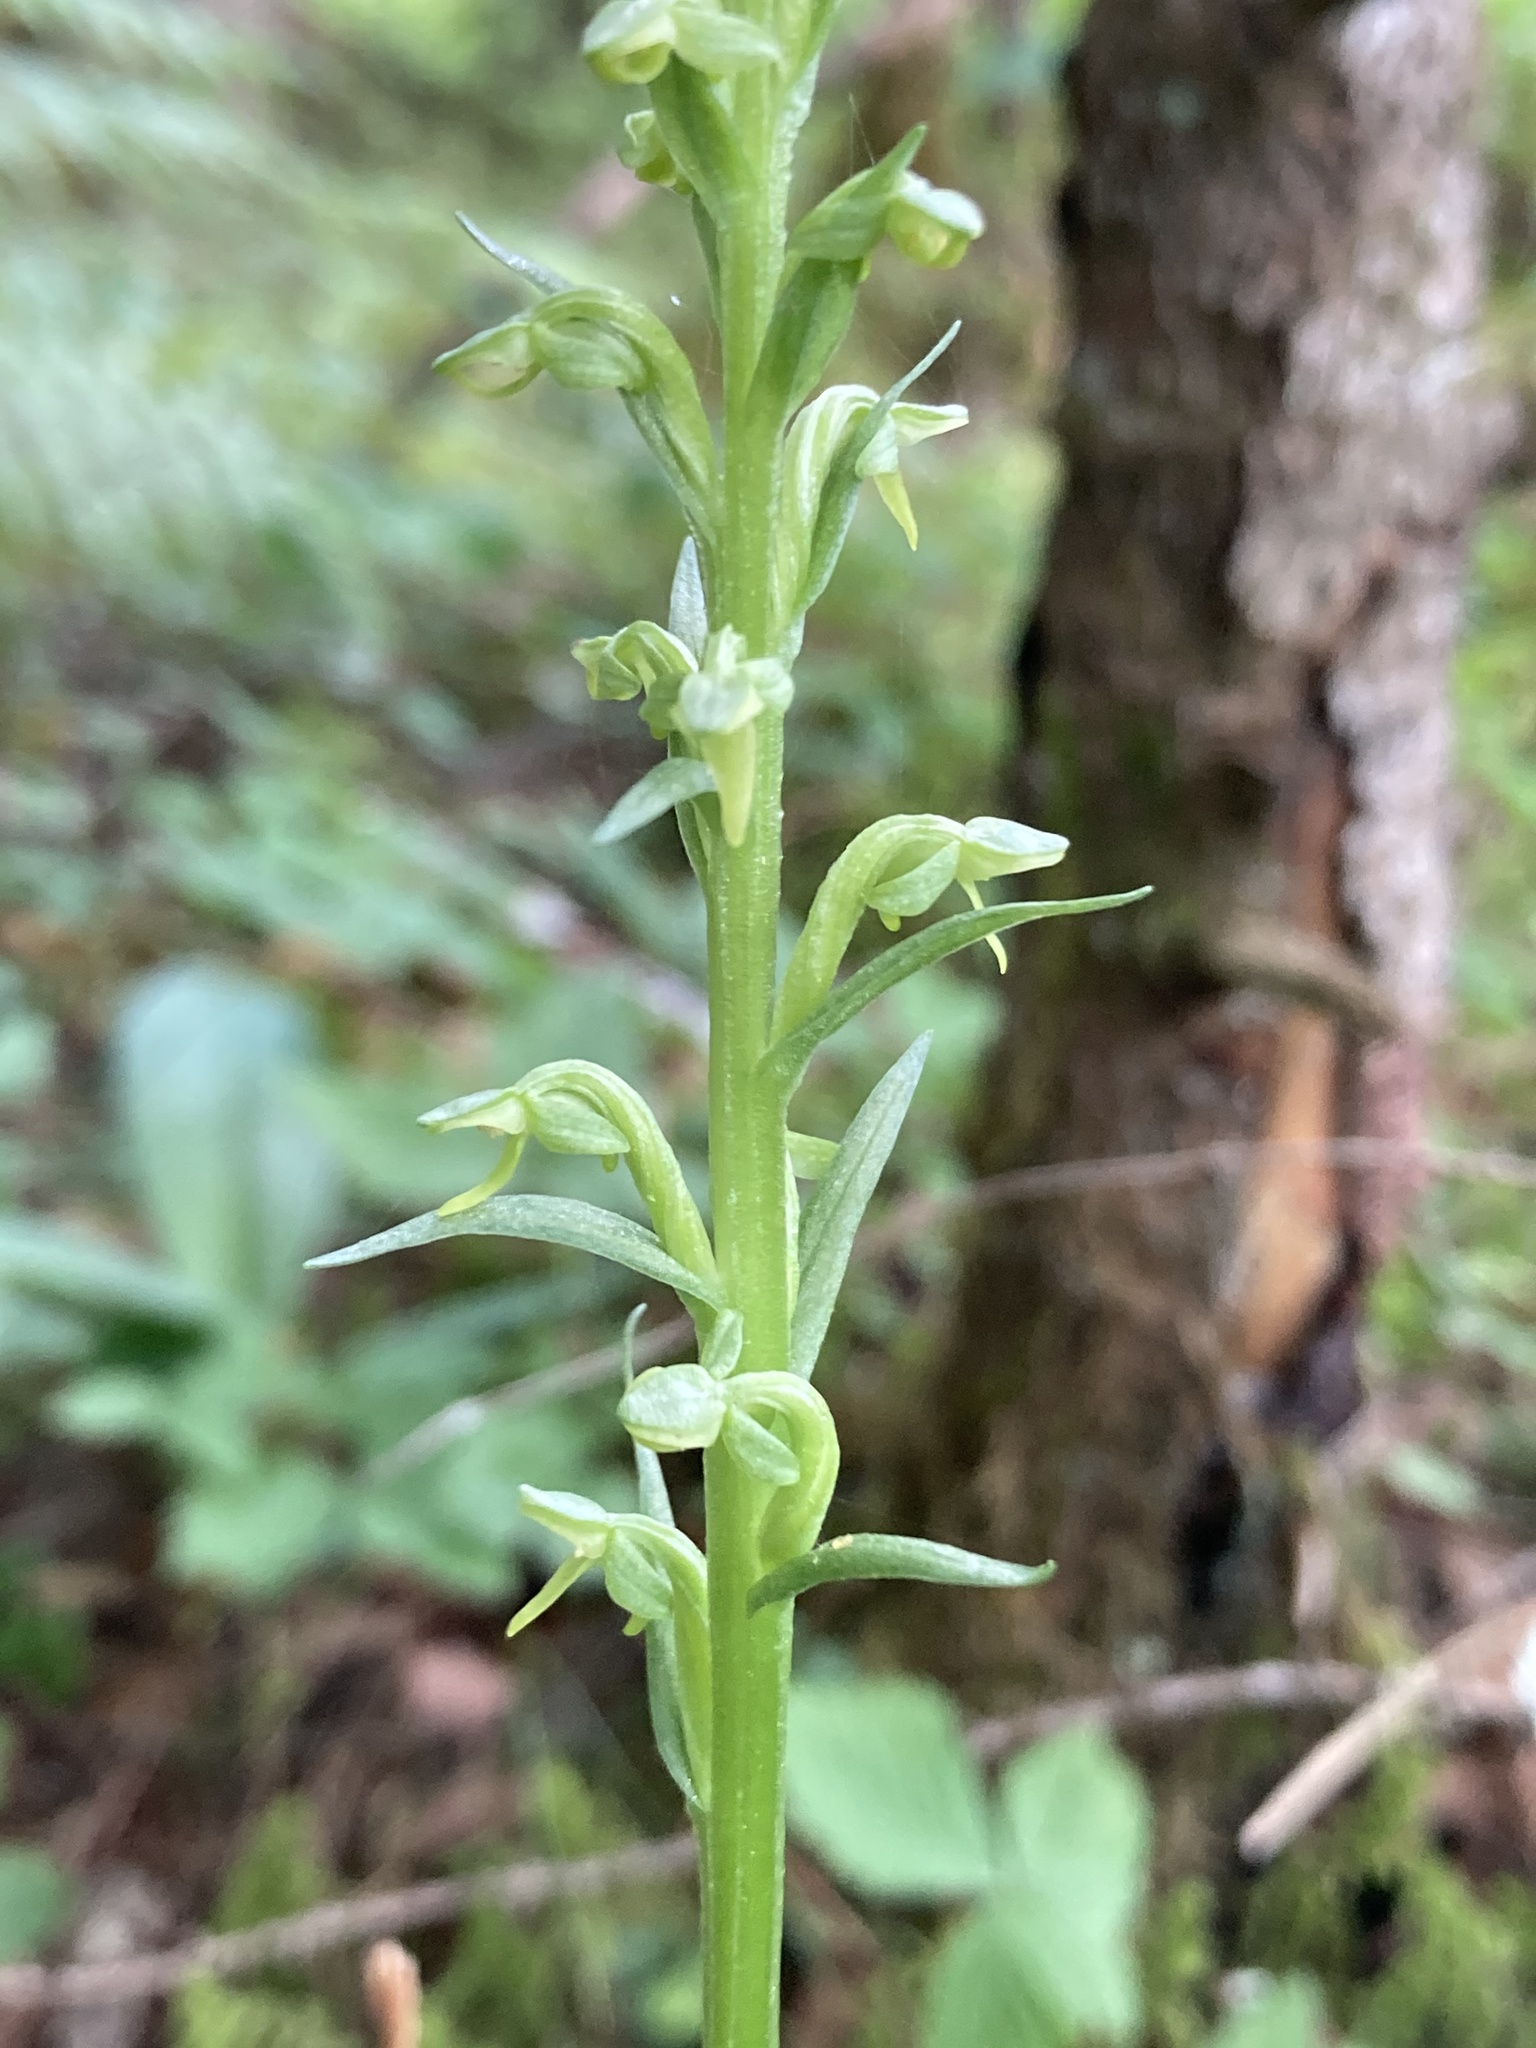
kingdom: Plantae
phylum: Tracheophyta
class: Liliopsida
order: Asparagales
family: Orchidaceae
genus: Platanthera
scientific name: Platanthera aquilonis
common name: Northern green orchid
